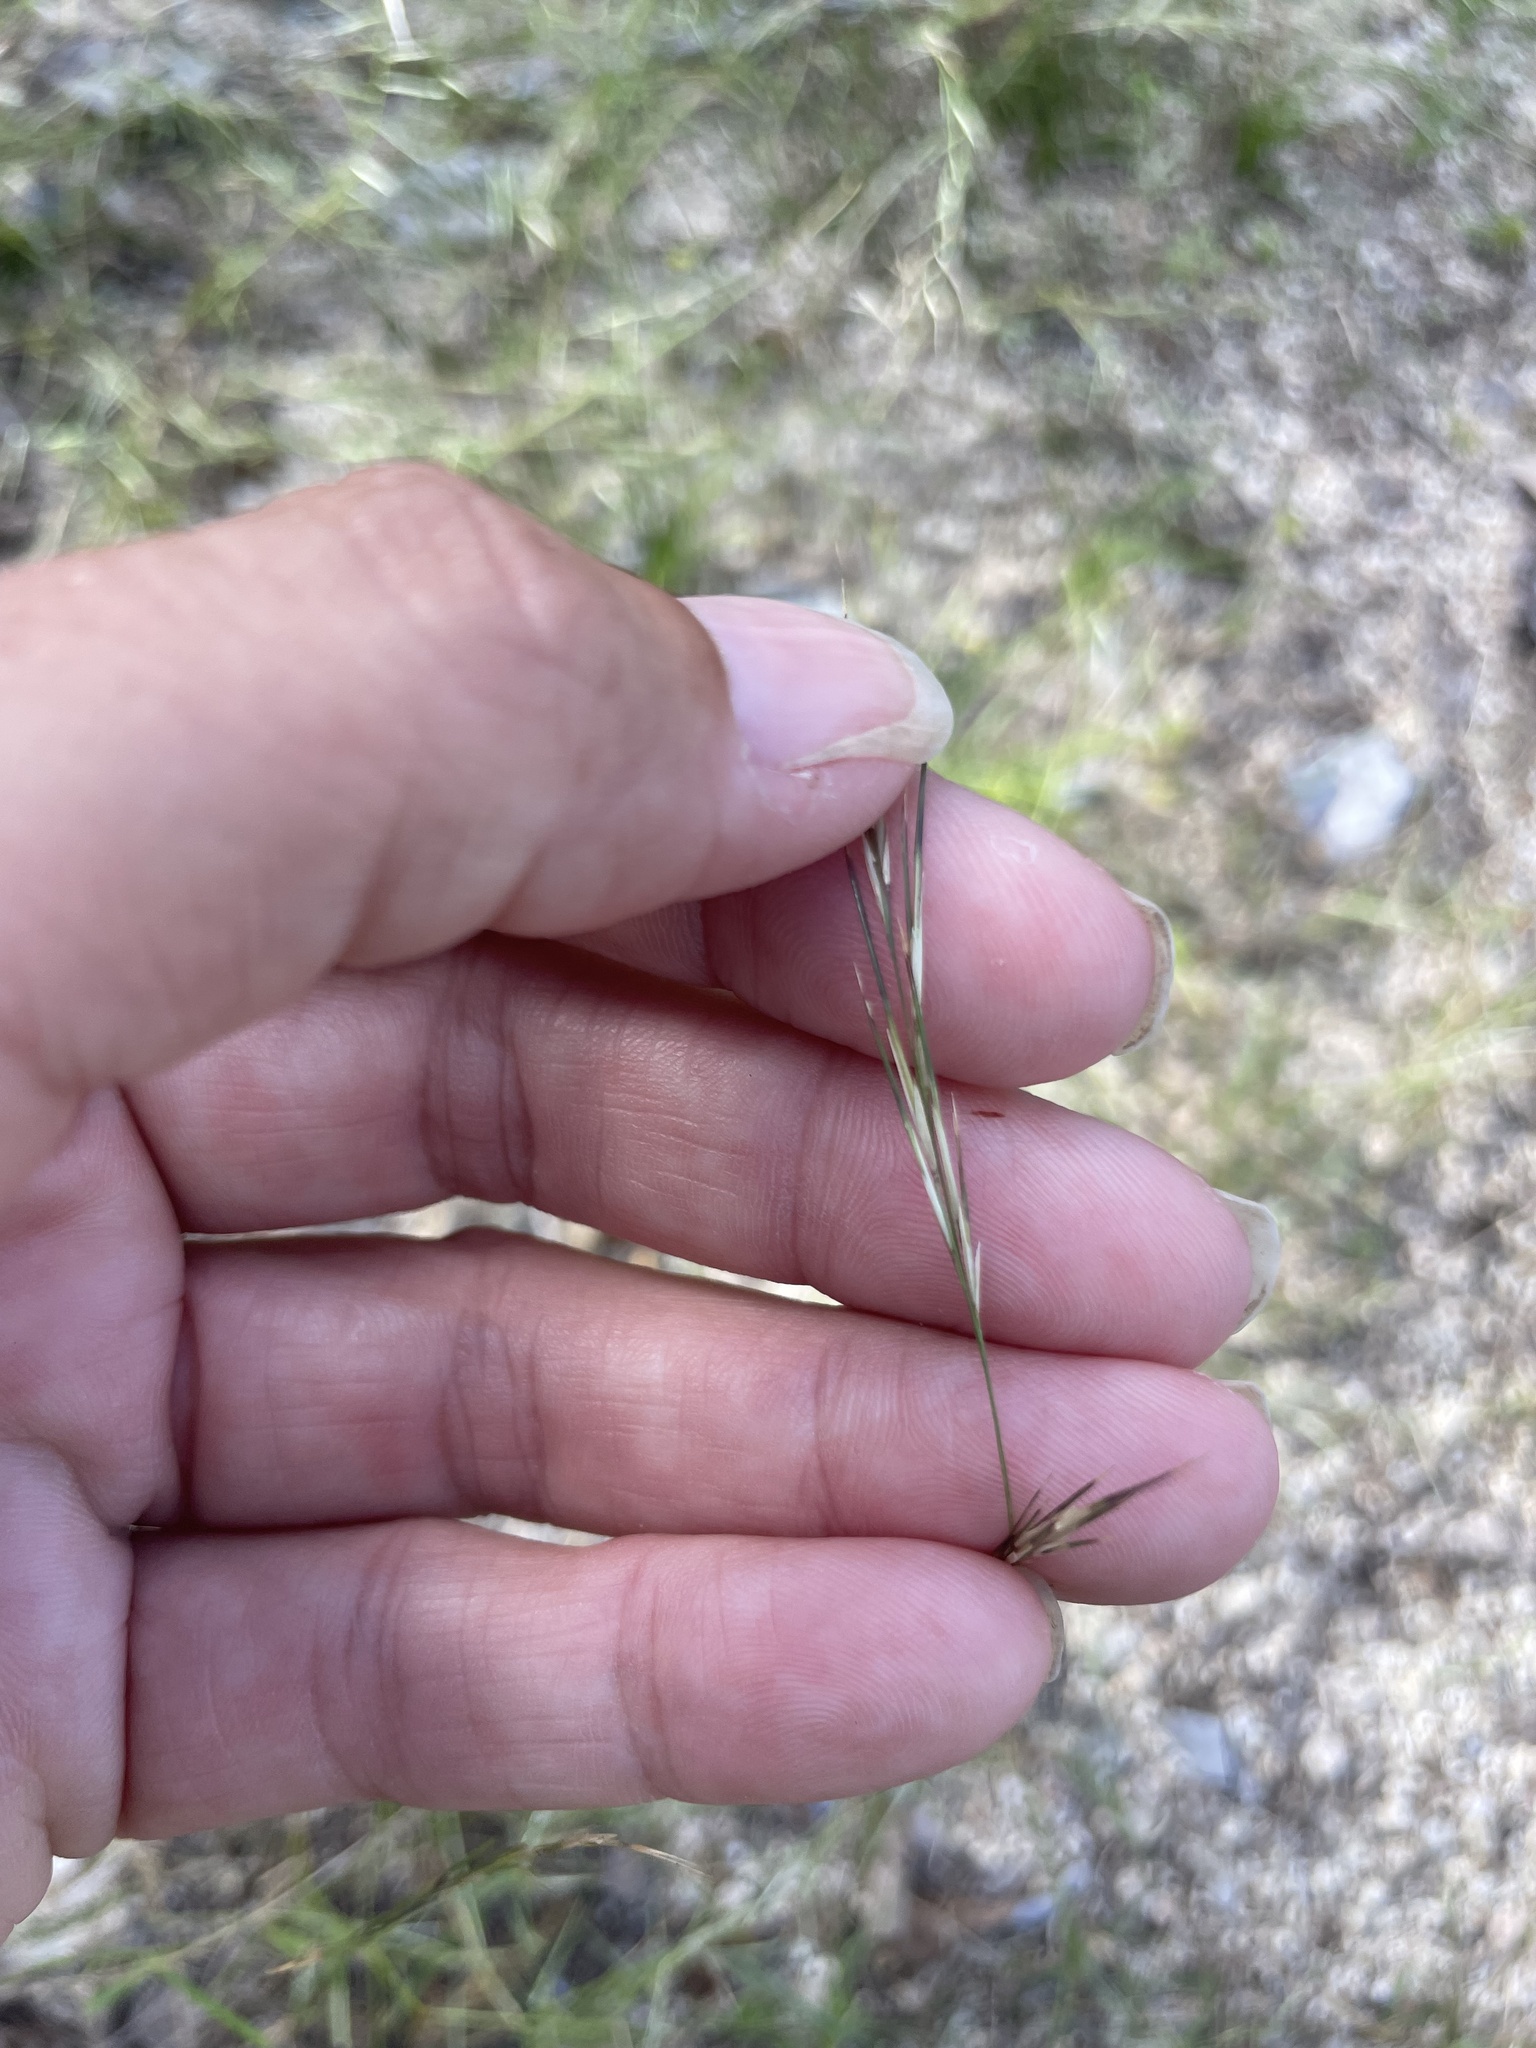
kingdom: Plantae
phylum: Tracheophyta
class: Liliopsida
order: Poales
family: Poaceae
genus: Aristida
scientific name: Aristida ternipes
